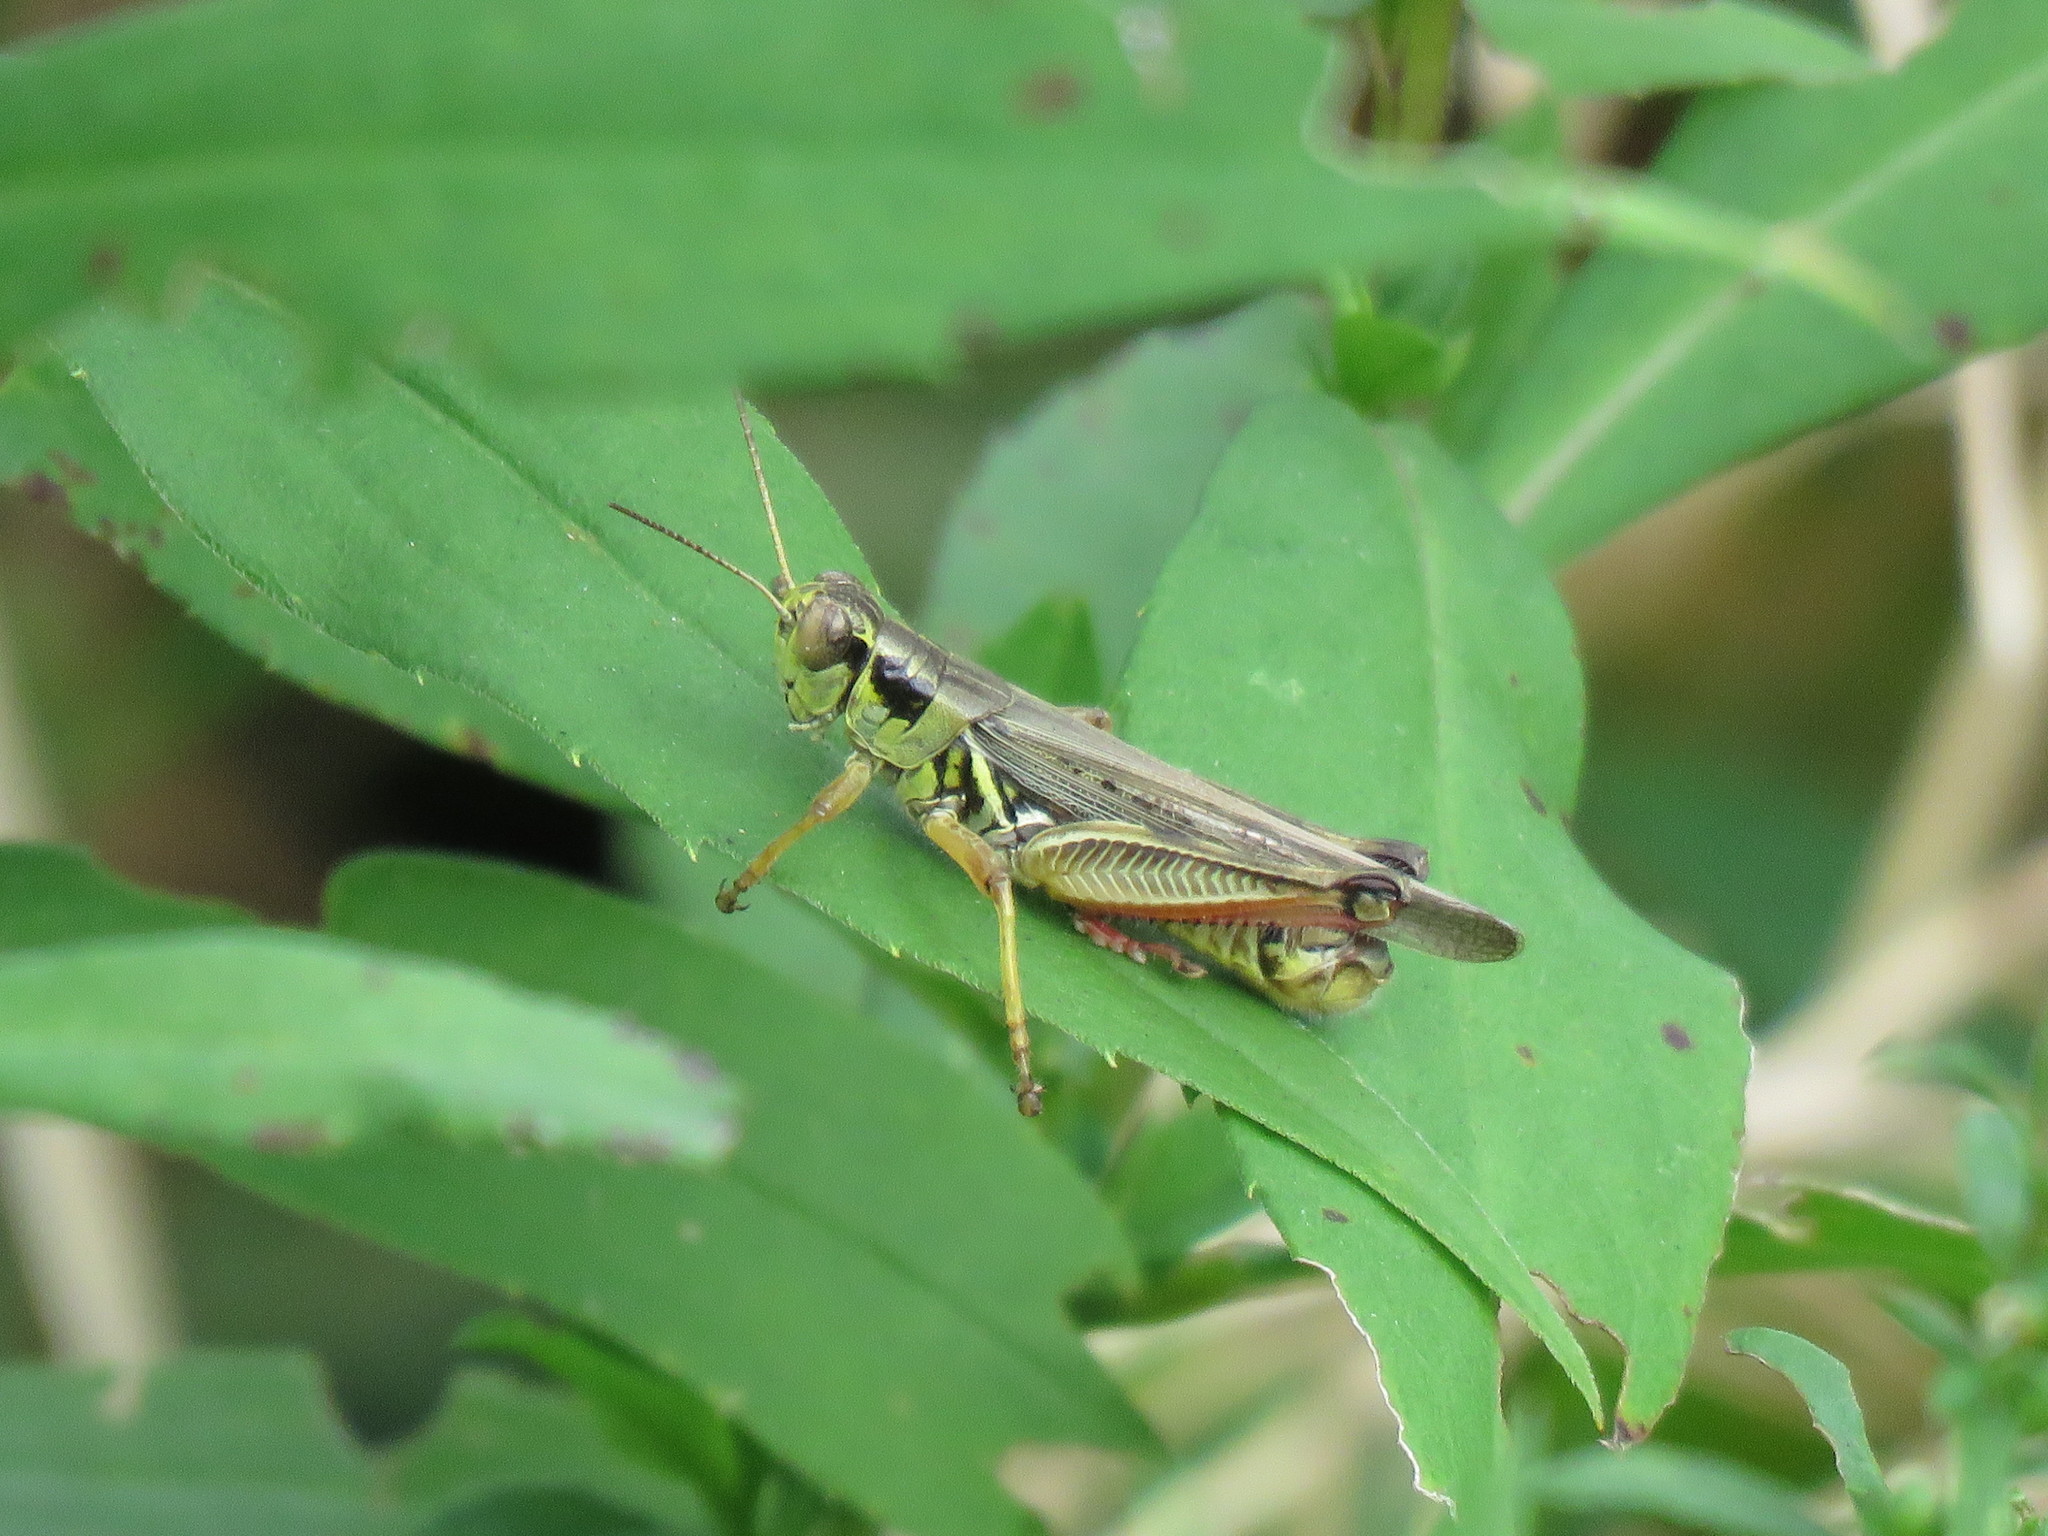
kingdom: Animalia
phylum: Arthropoda
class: Insecta
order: Orthoptera
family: Acrididae
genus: Melanoplus
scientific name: Melanoplus femurrubrum
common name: Red-legged grasshopper
